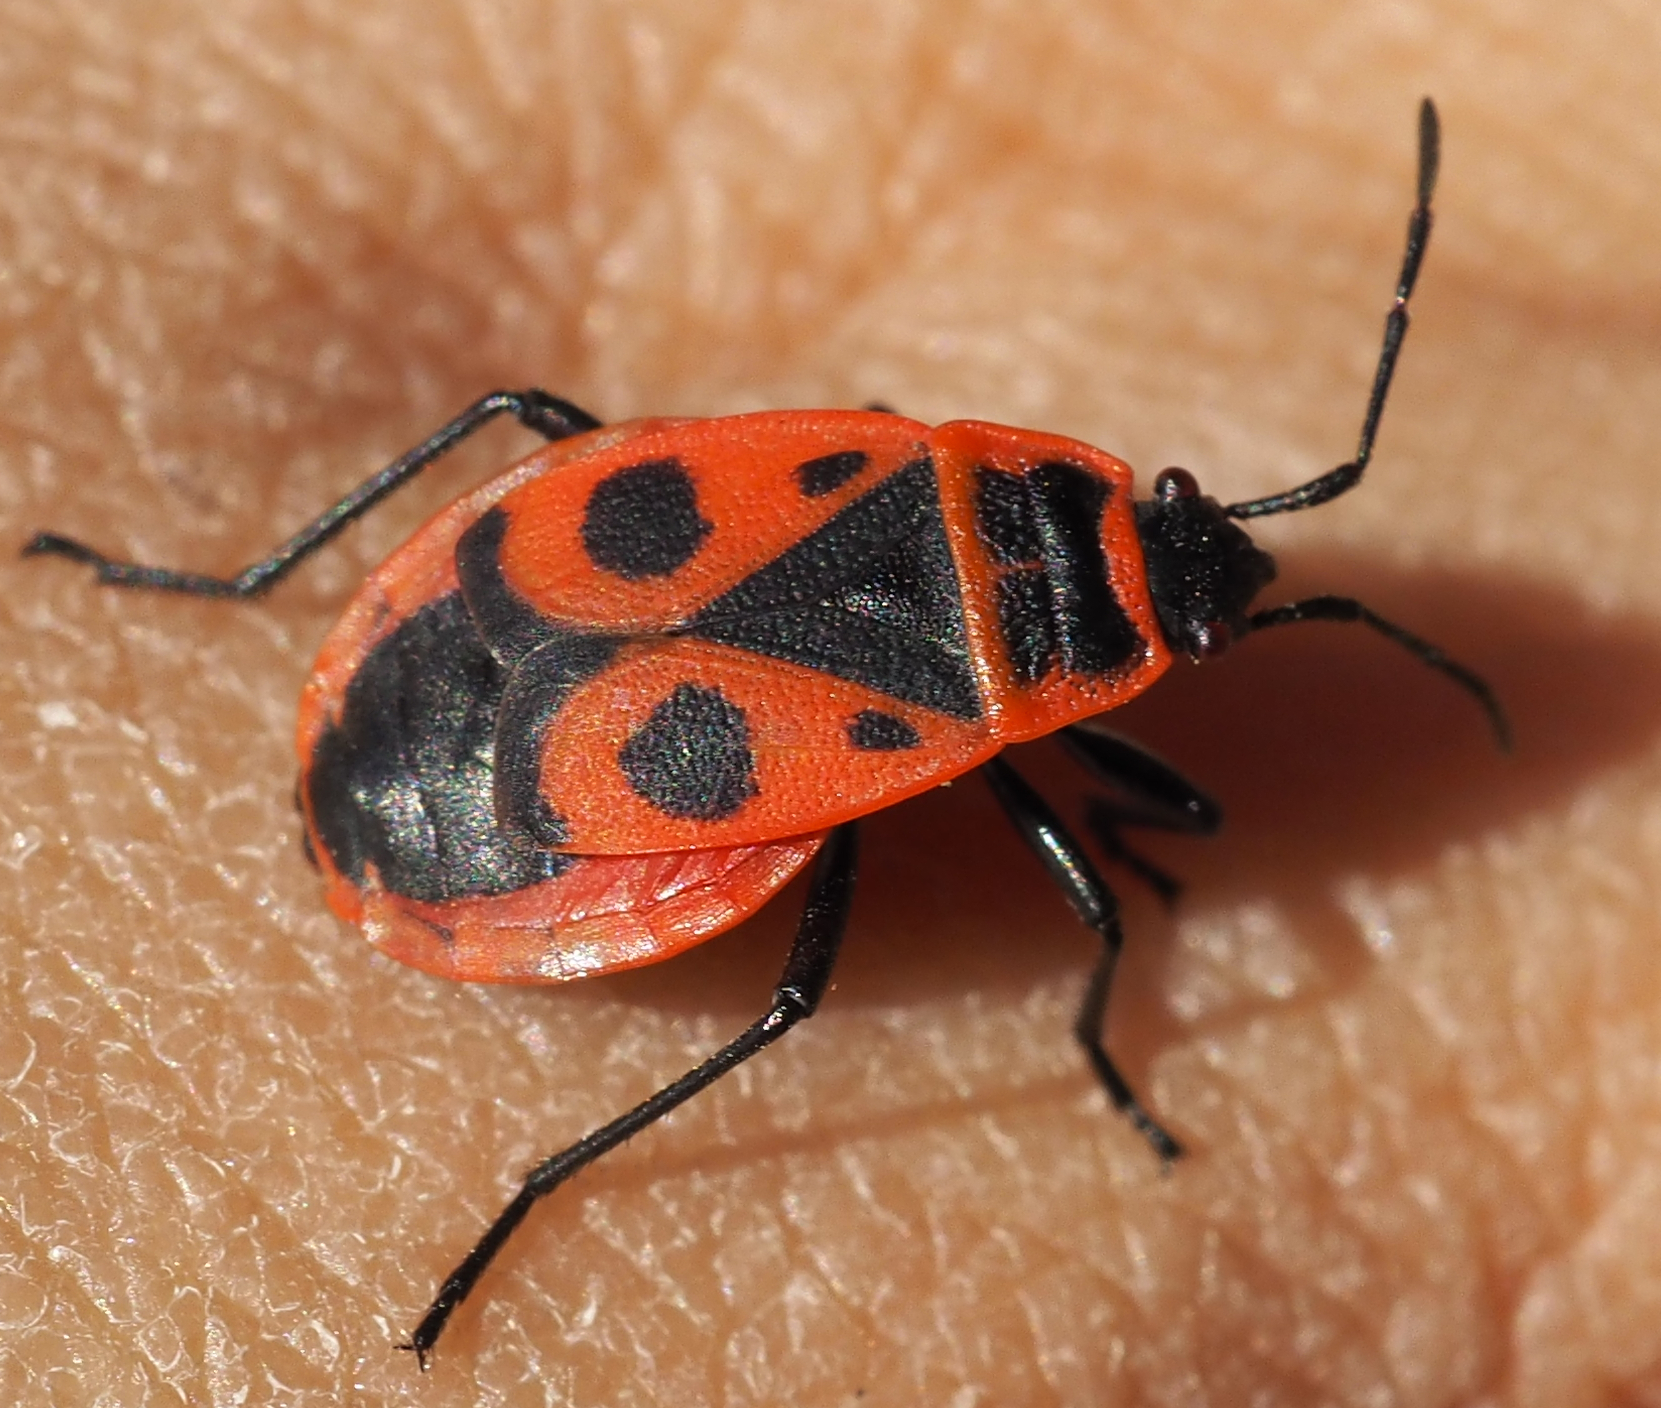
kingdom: Animalia
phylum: Arthropoda
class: Insecta
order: Hemiptera
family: Pyrrhocoridae
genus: Pyrrhocoris
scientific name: Pyrrhocoris apterus
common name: Firebug
